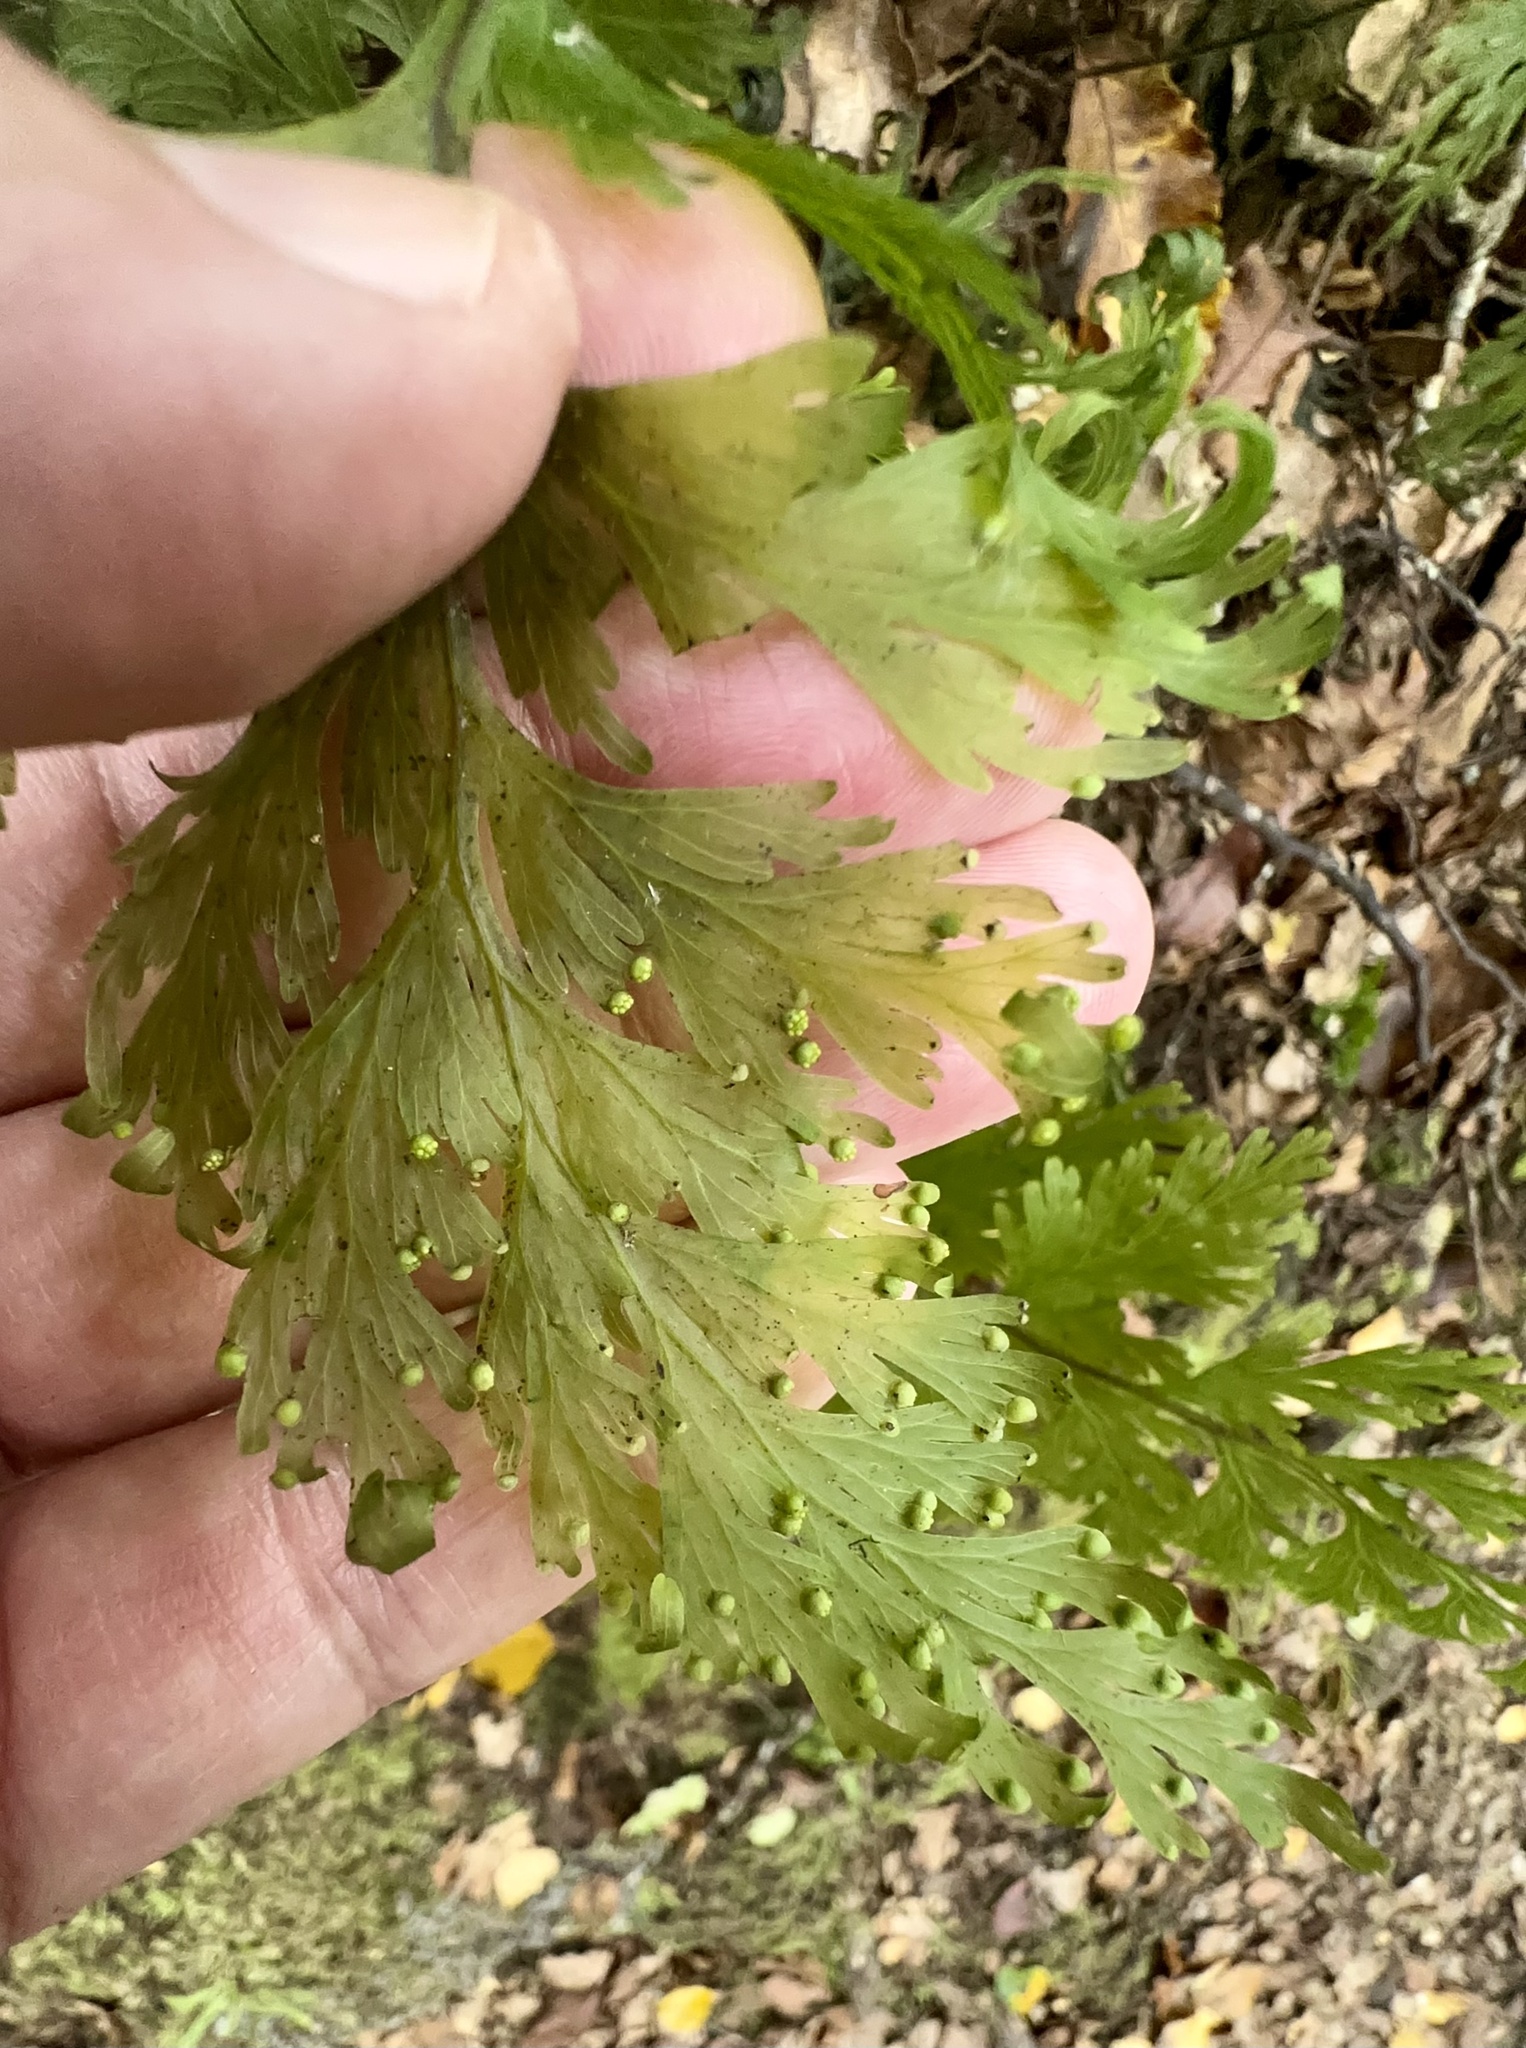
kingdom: Plantae
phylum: Tracheophyta
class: Polypodiopsida
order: Hymenophyllales
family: Hymenophyllaceae
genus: Hymenophyllum
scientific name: Hymenophyllum dilatatum
